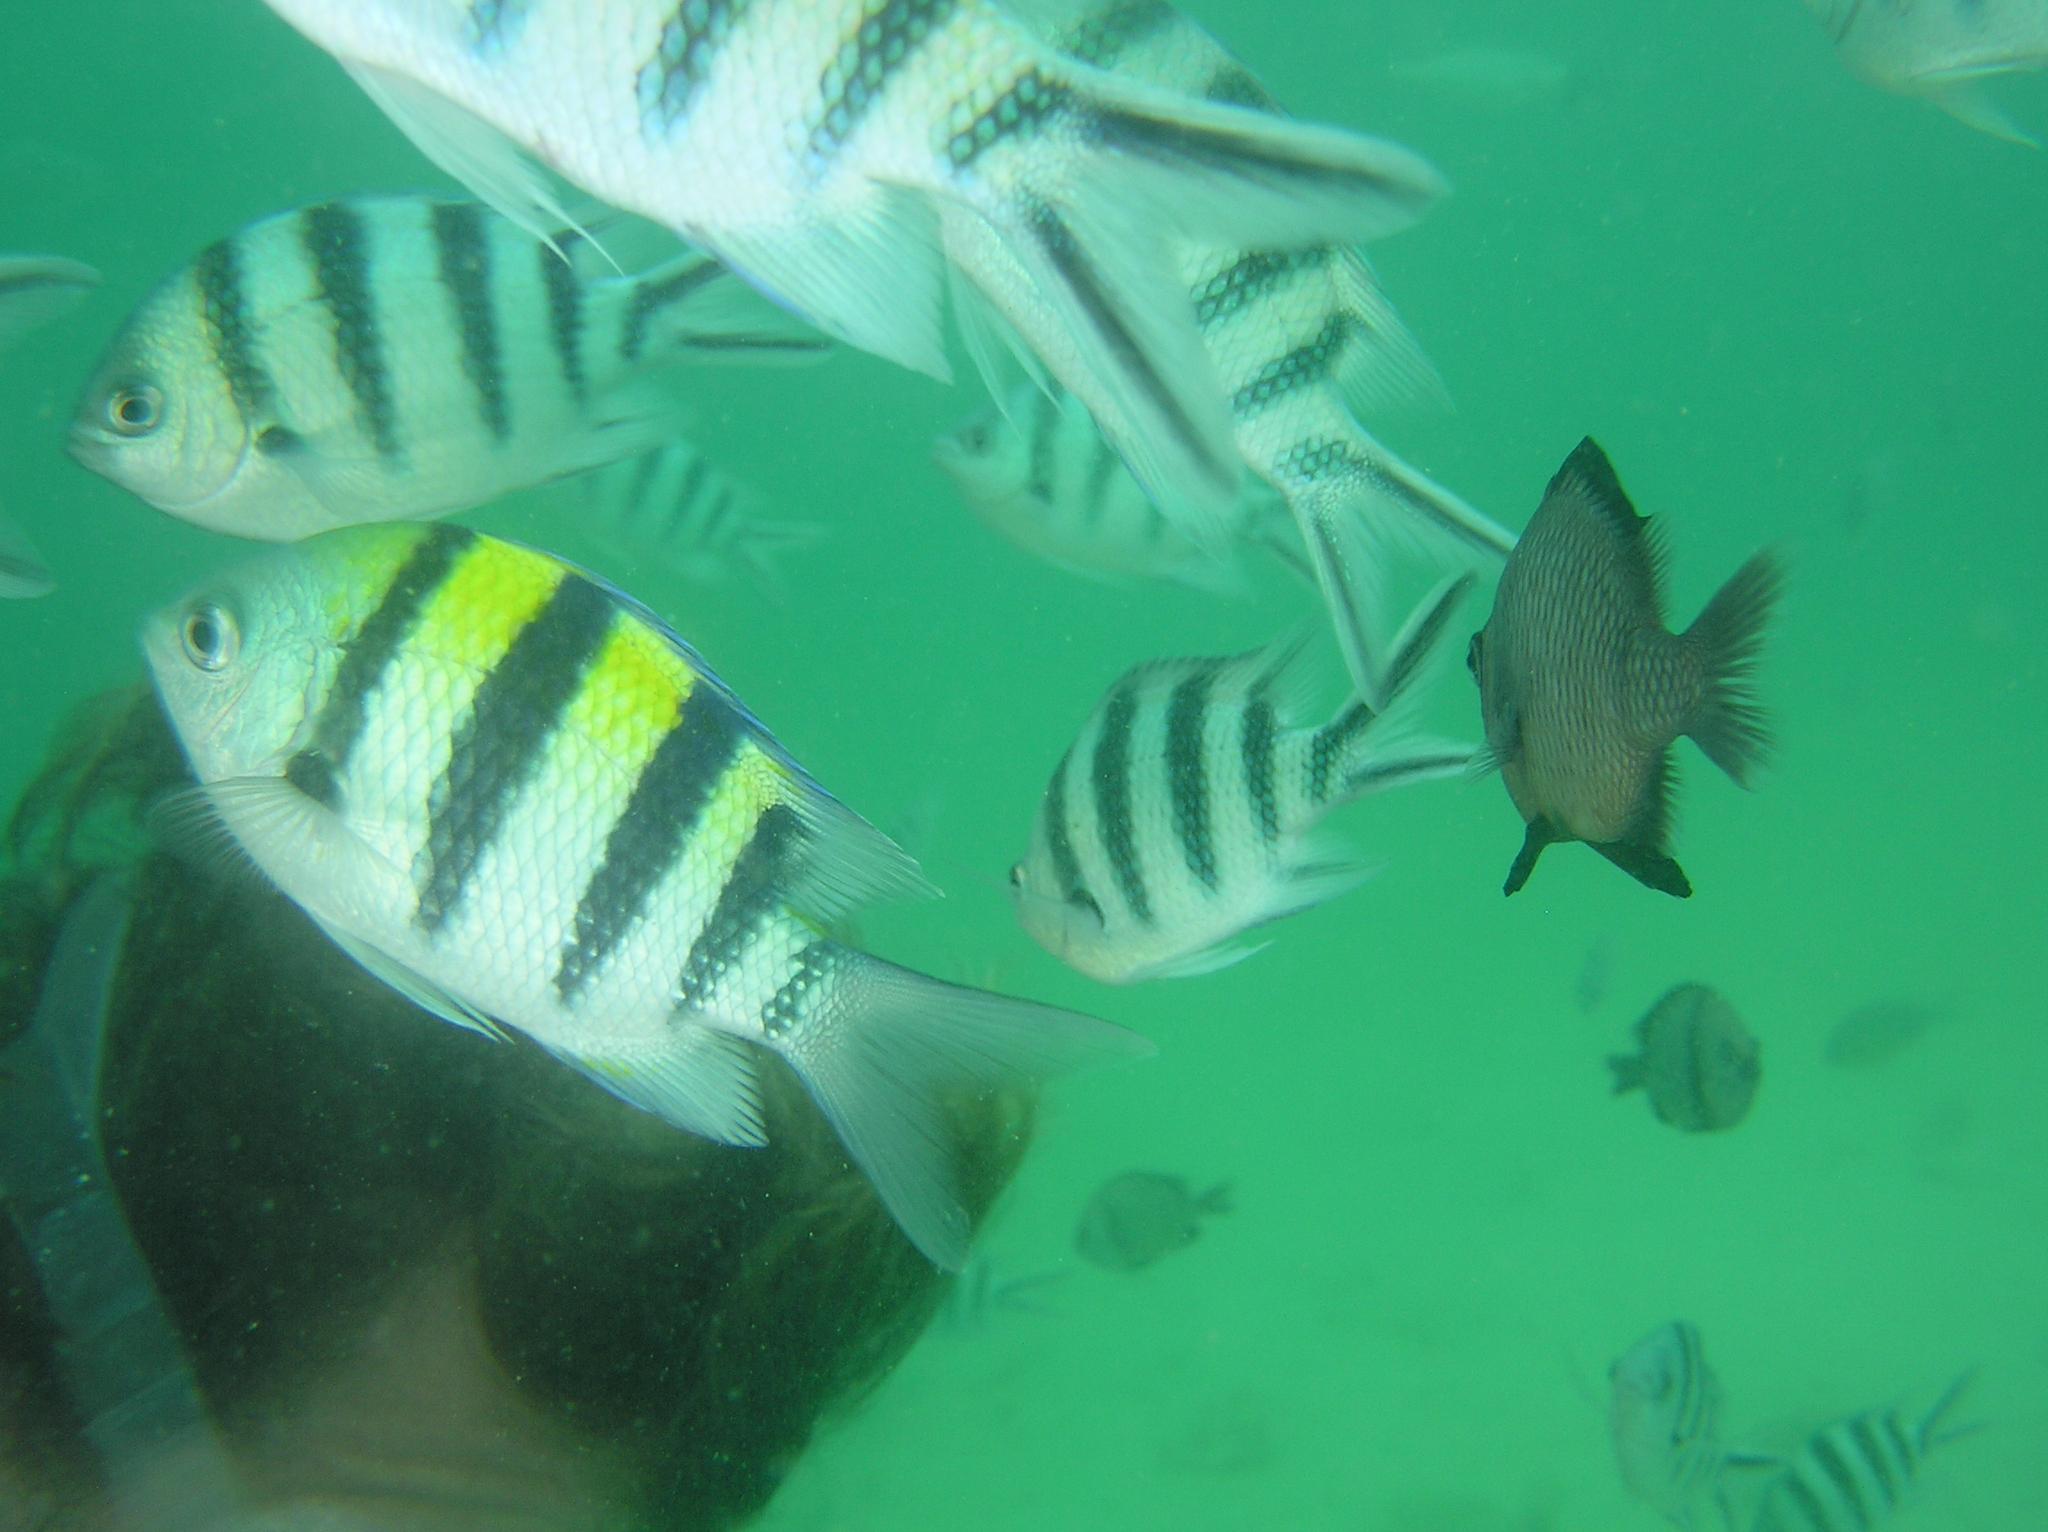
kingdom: Animalia
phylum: Chordata
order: Perciformes
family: Pomacentridae
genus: Abudefduf
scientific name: Abudefduf vaigiensis
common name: Indo-pacific sergeant
